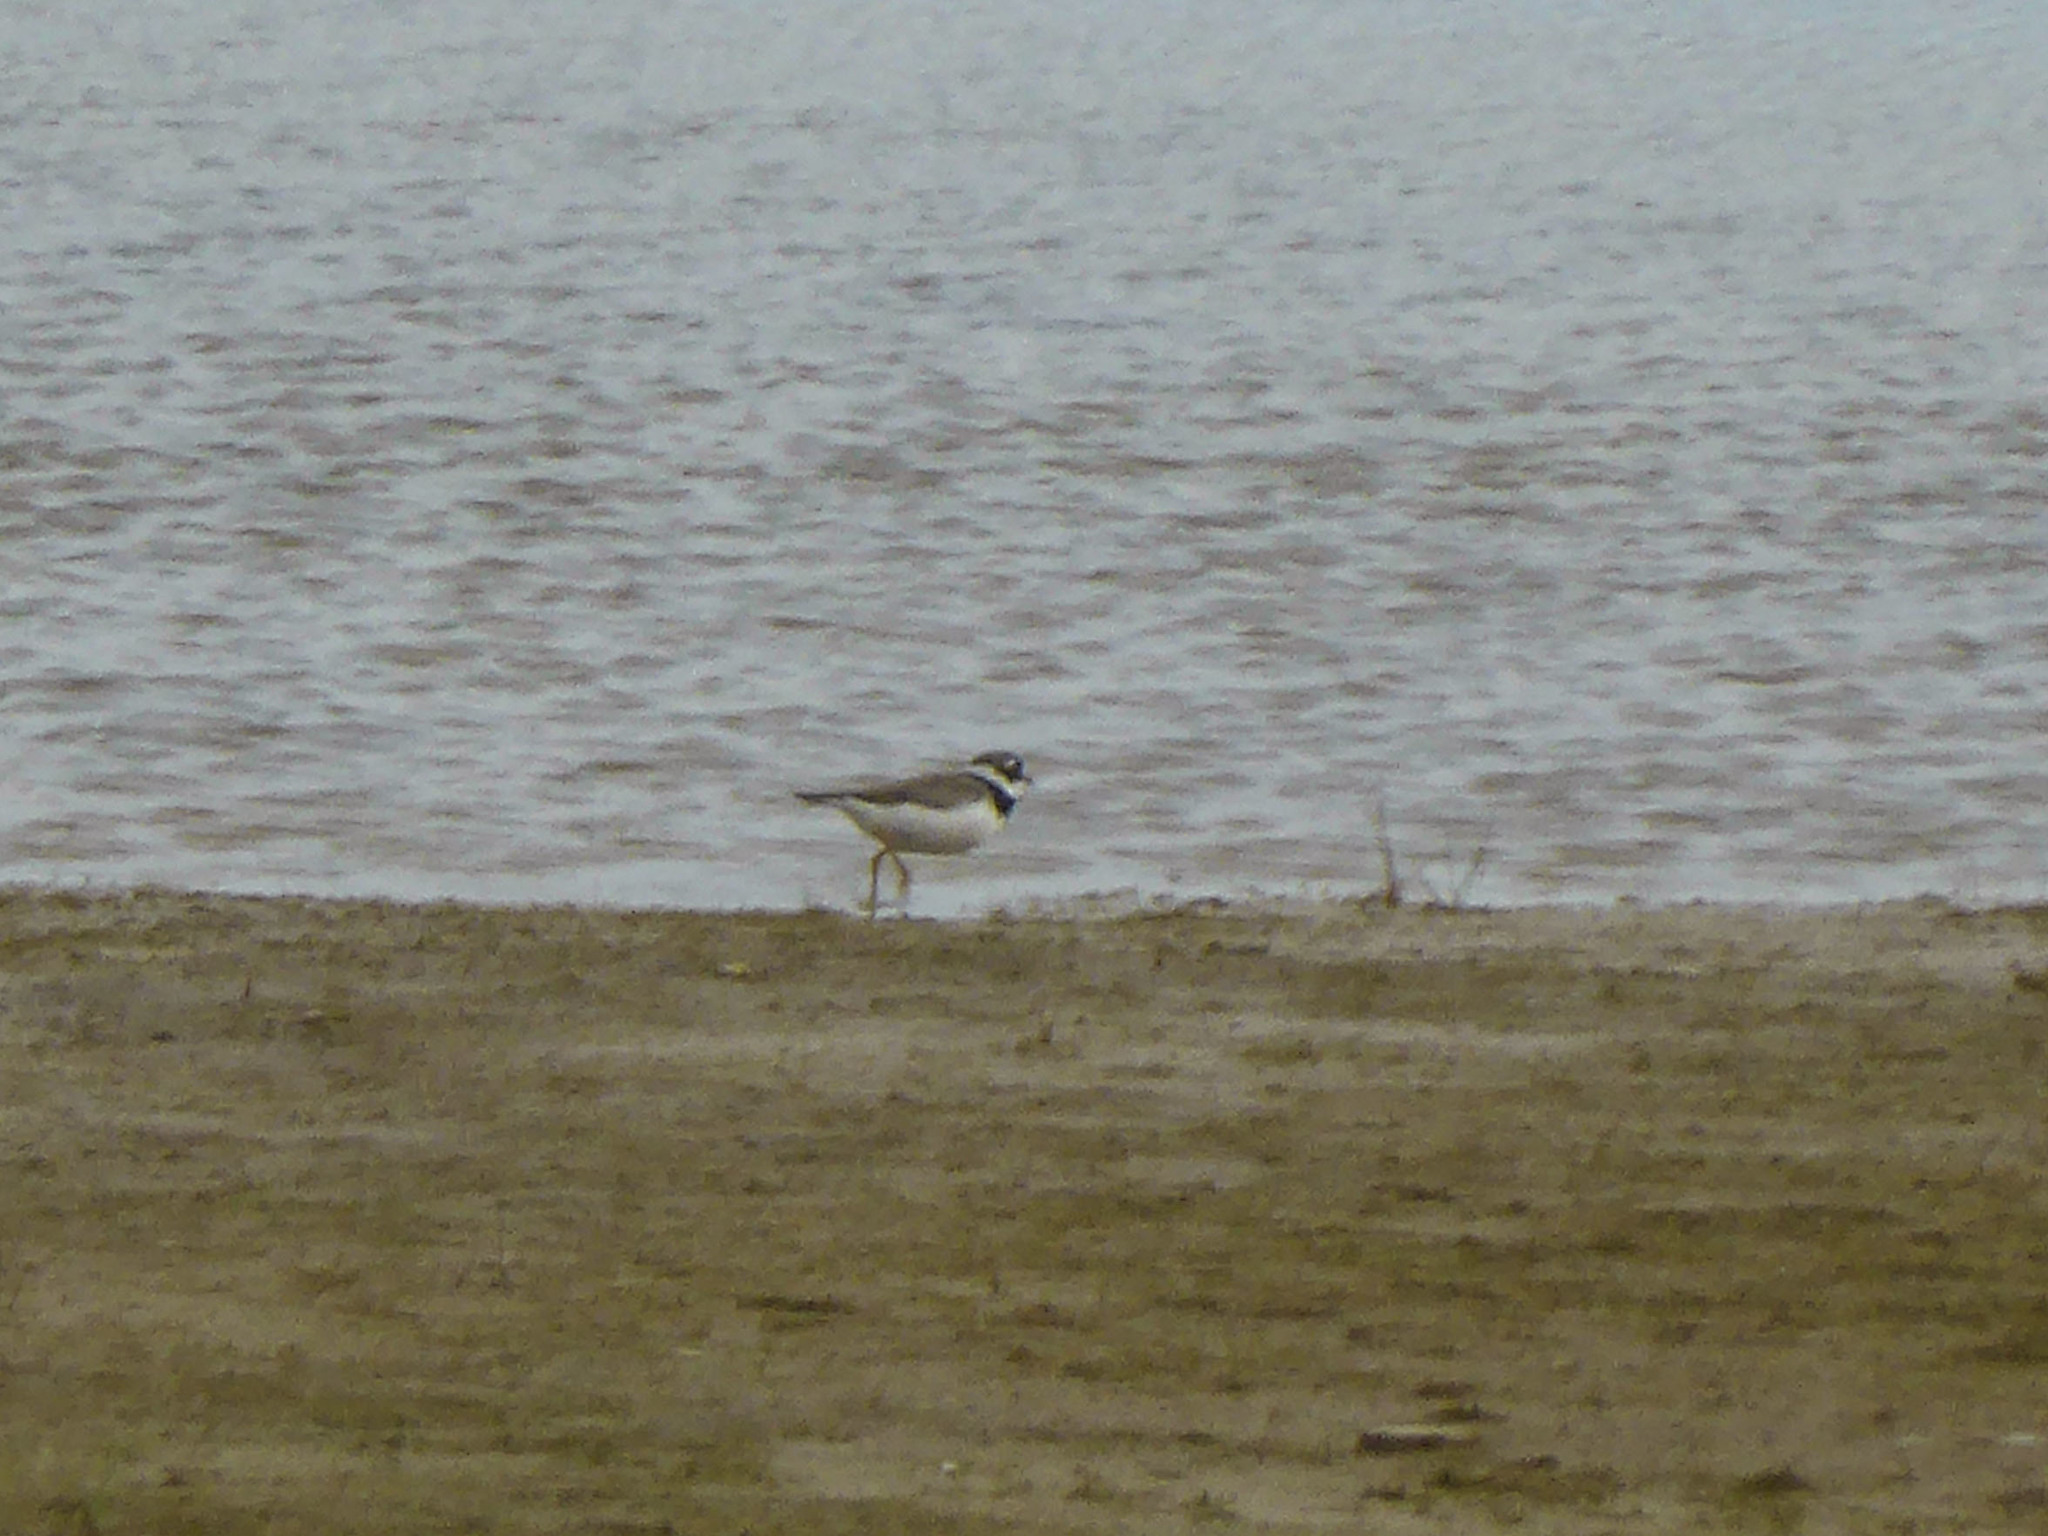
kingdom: Animalia
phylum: Chordata
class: Aves
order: Charadriiformes
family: Charadriidae
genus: Charadrius
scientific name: Charadrius hiaticula
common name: Common ringed plover
